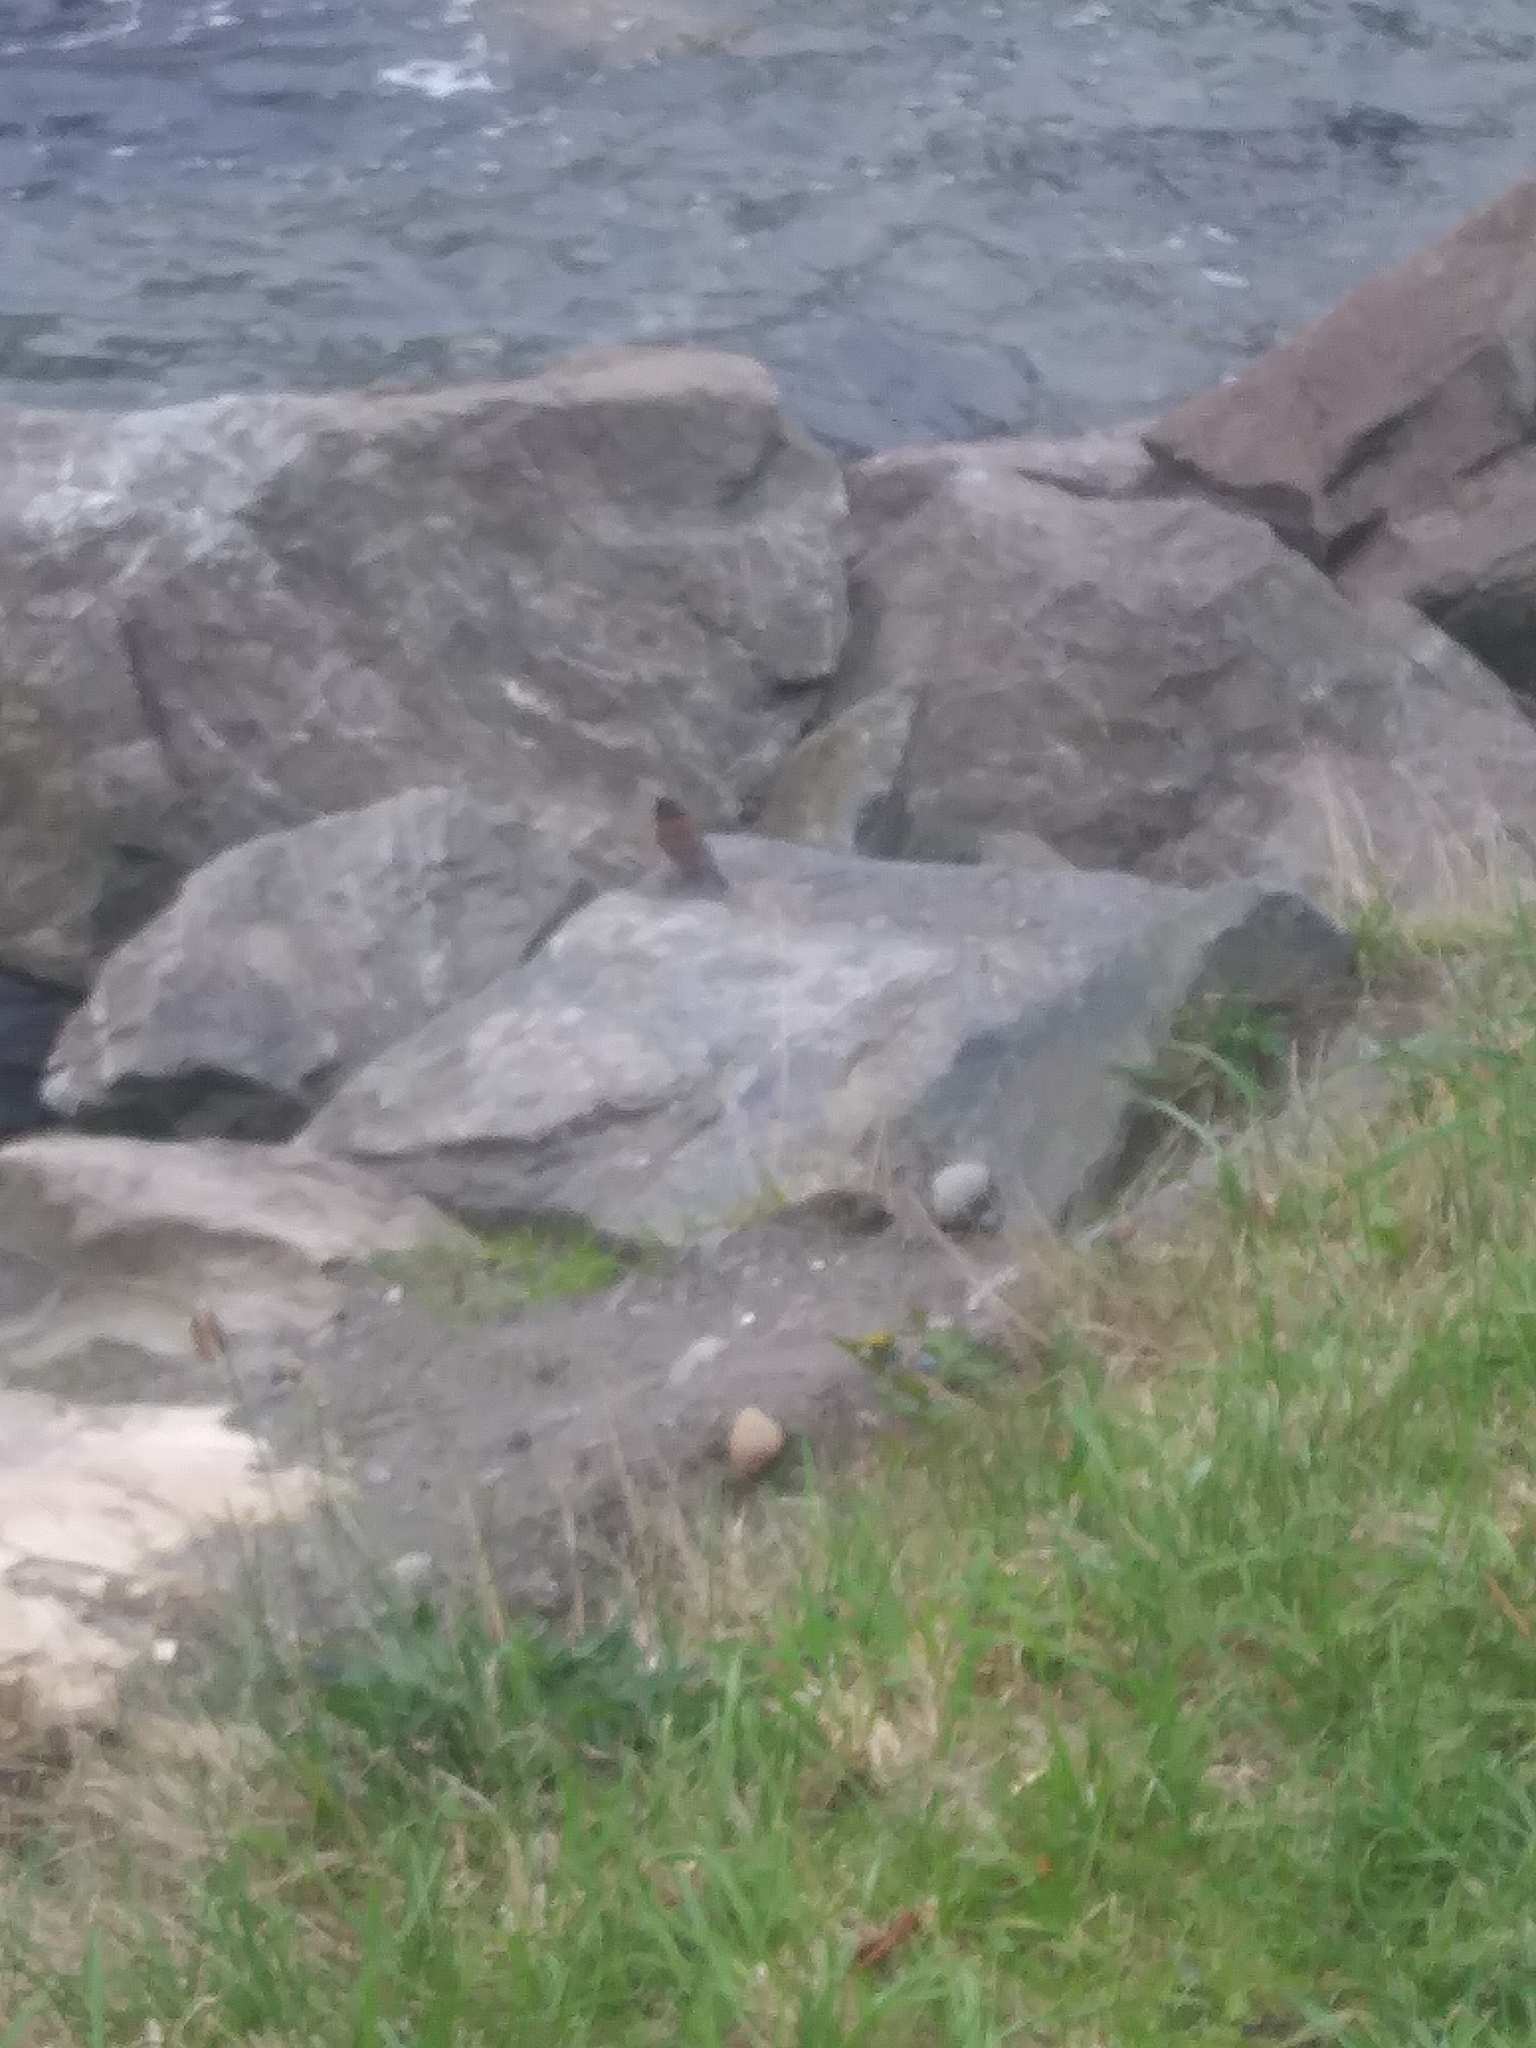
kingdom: Animalia
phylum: Chordata
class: Aves
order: Passeriformes
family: Passerellidae
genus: Junco
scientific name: Junco hyemalis
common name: Dark-eyed junco
